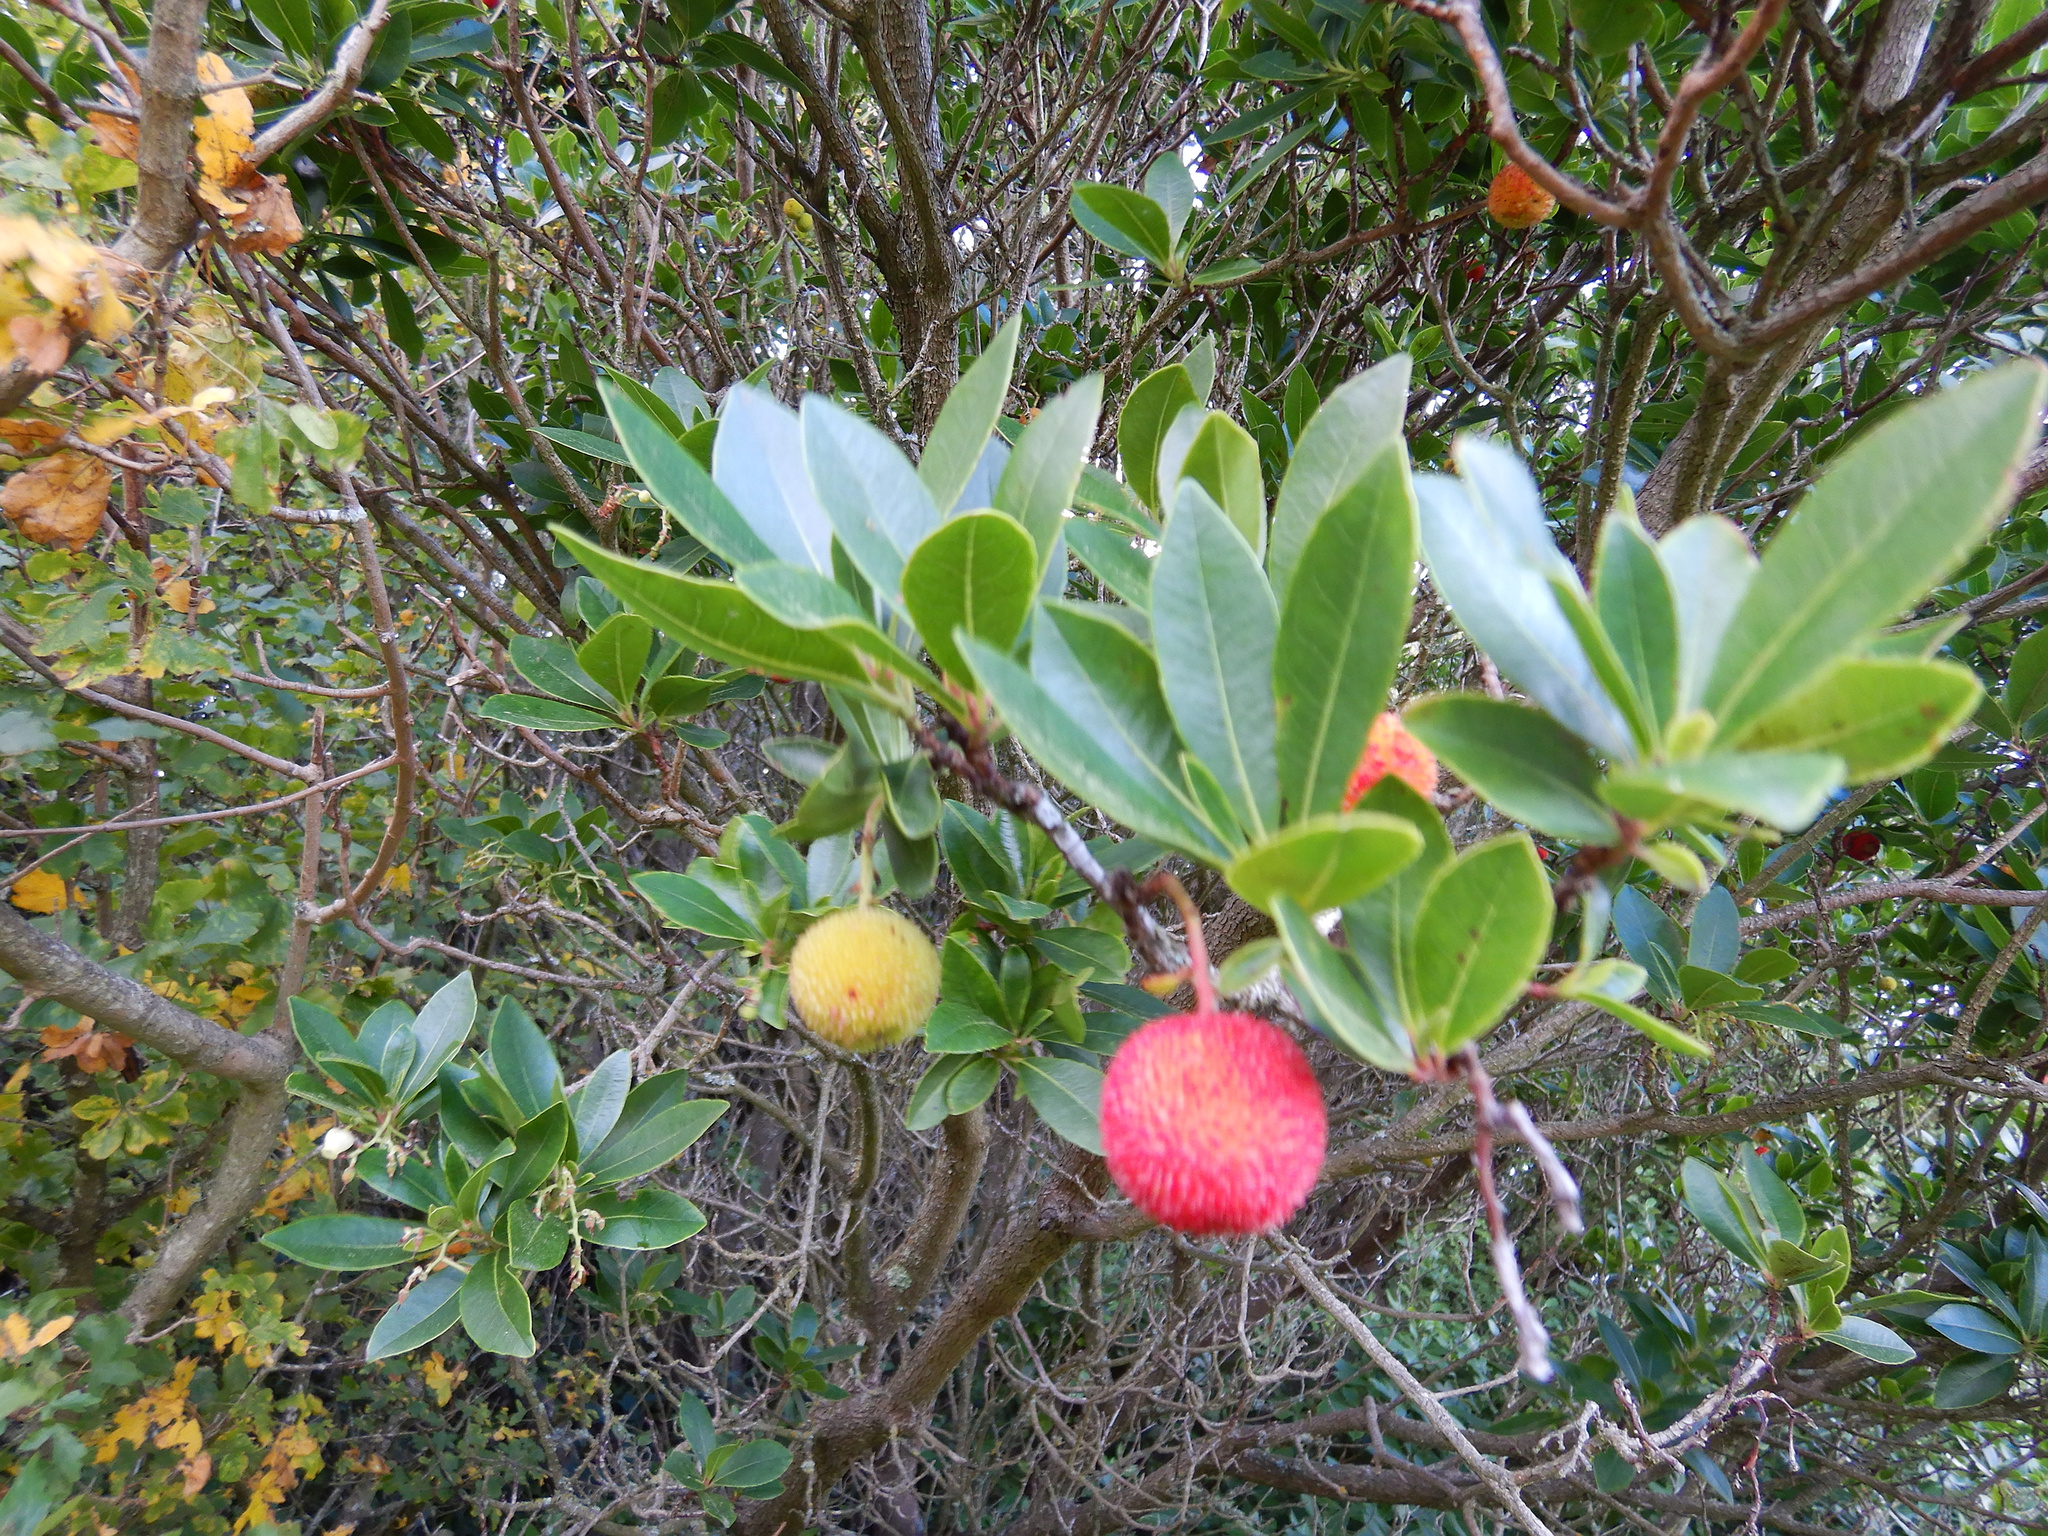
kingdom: Plantae
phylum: Tracheophyta
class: Magnoliopsida
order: Ericales
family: Ericaceae
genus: Arbutus
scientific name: Arbutus unedo
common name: Strawberry-tree
